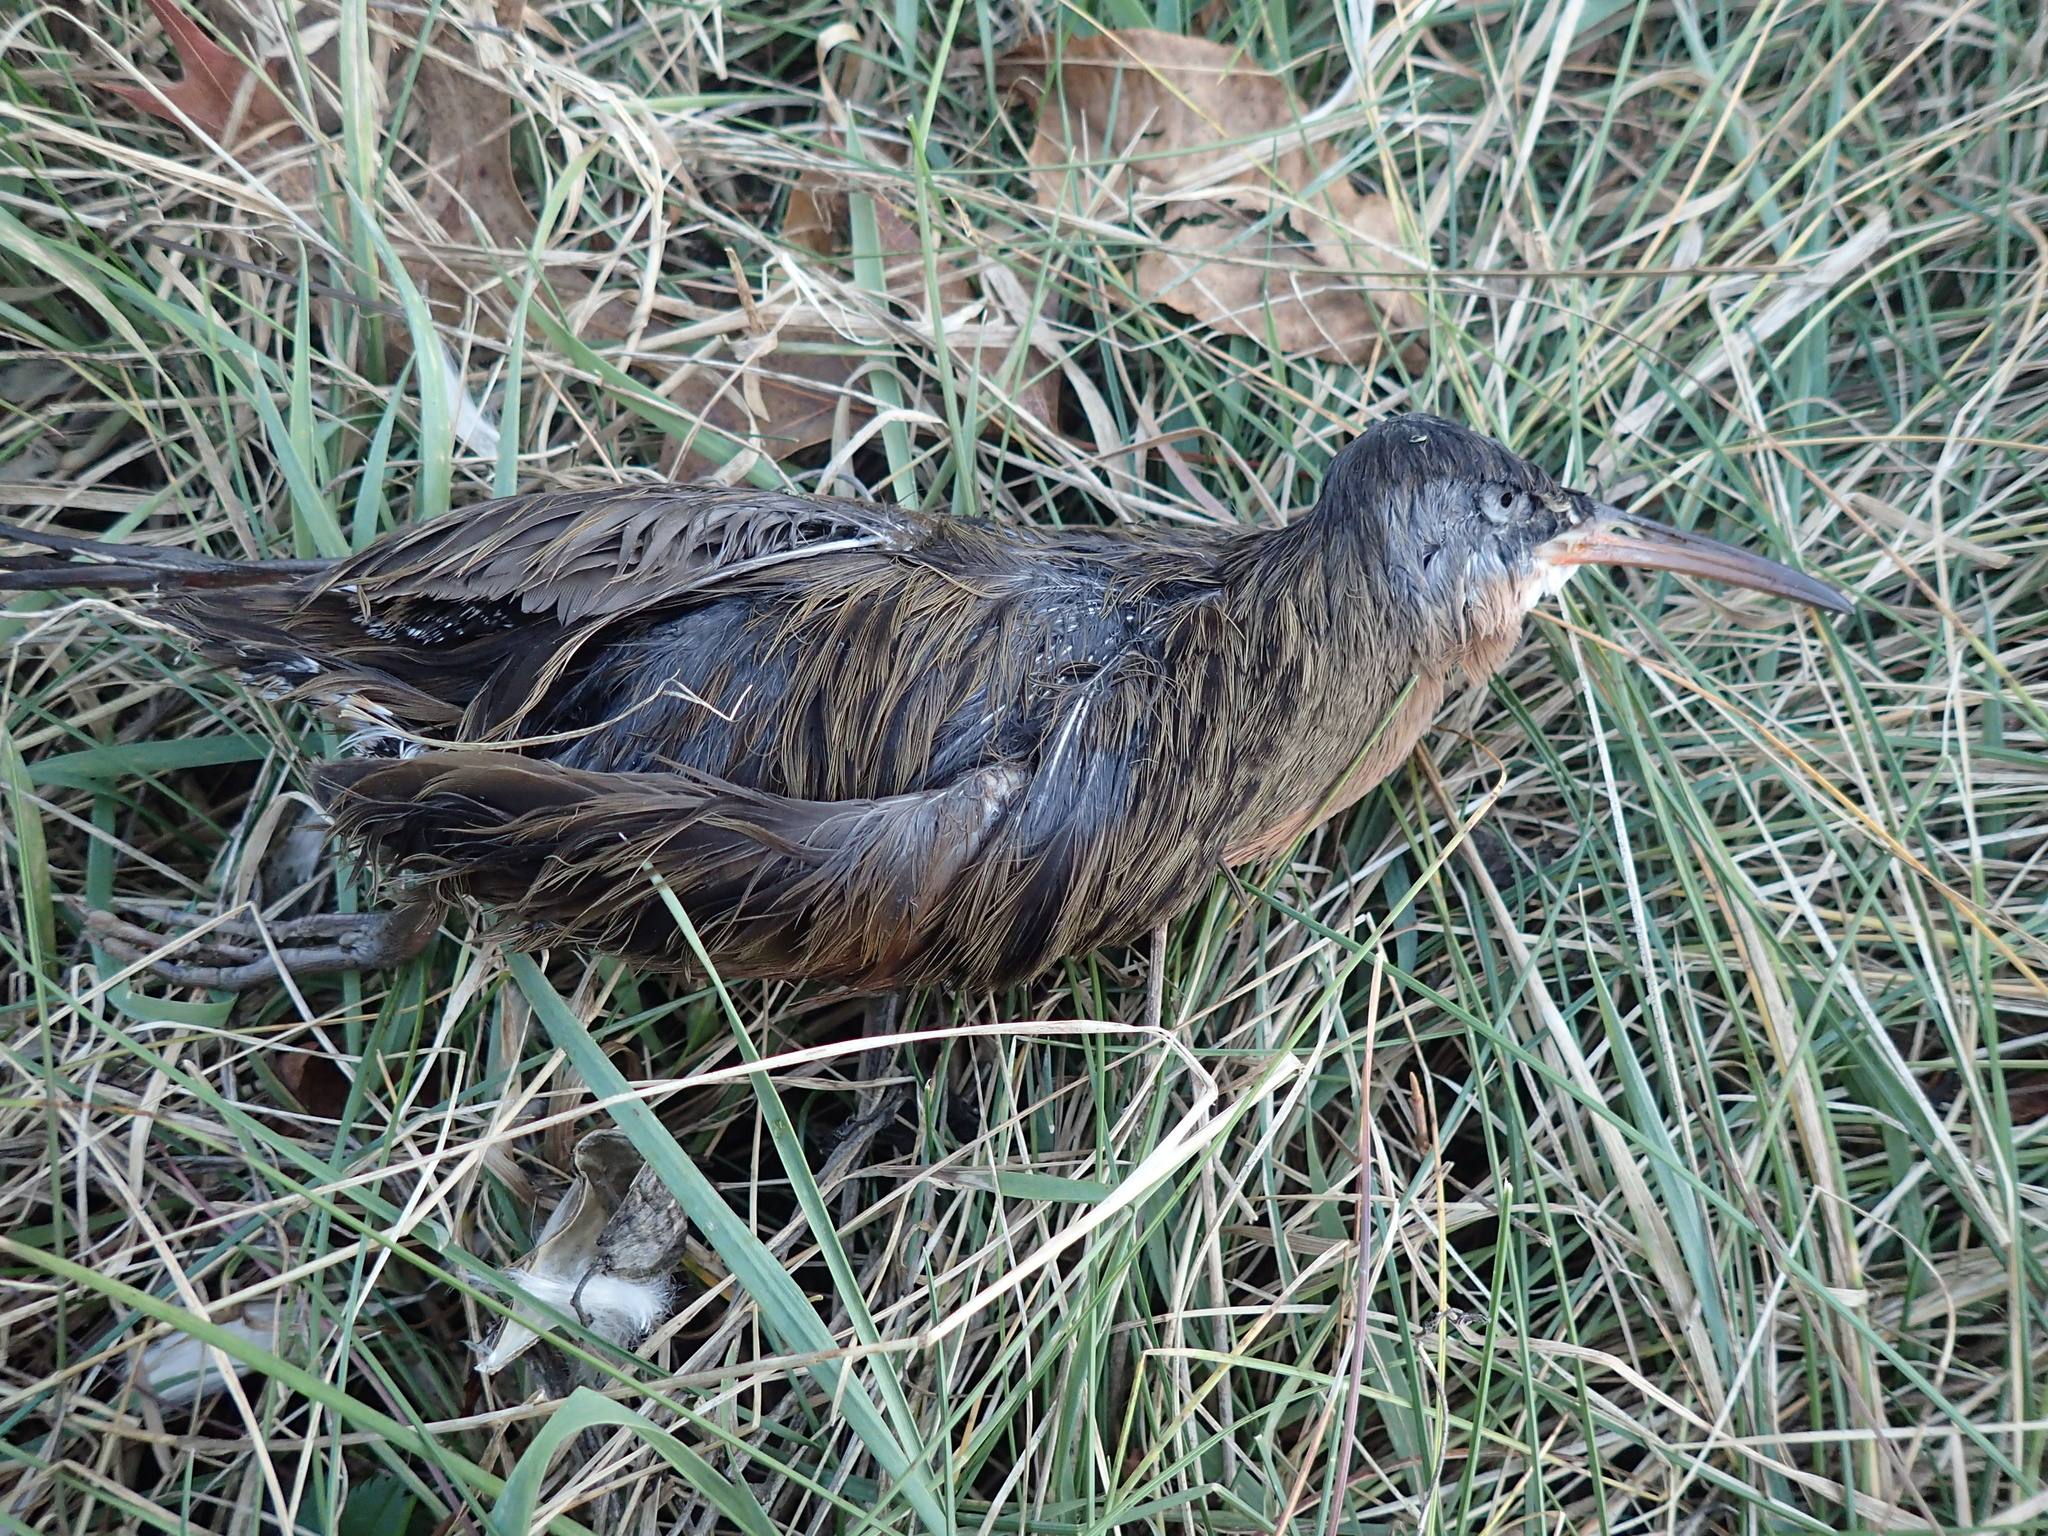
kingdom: Animalia
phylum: Chordata
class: Aves
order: Gruiformes
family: Rallidae
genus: Rallus
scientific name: Rallus limicola
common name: Virginia rail
